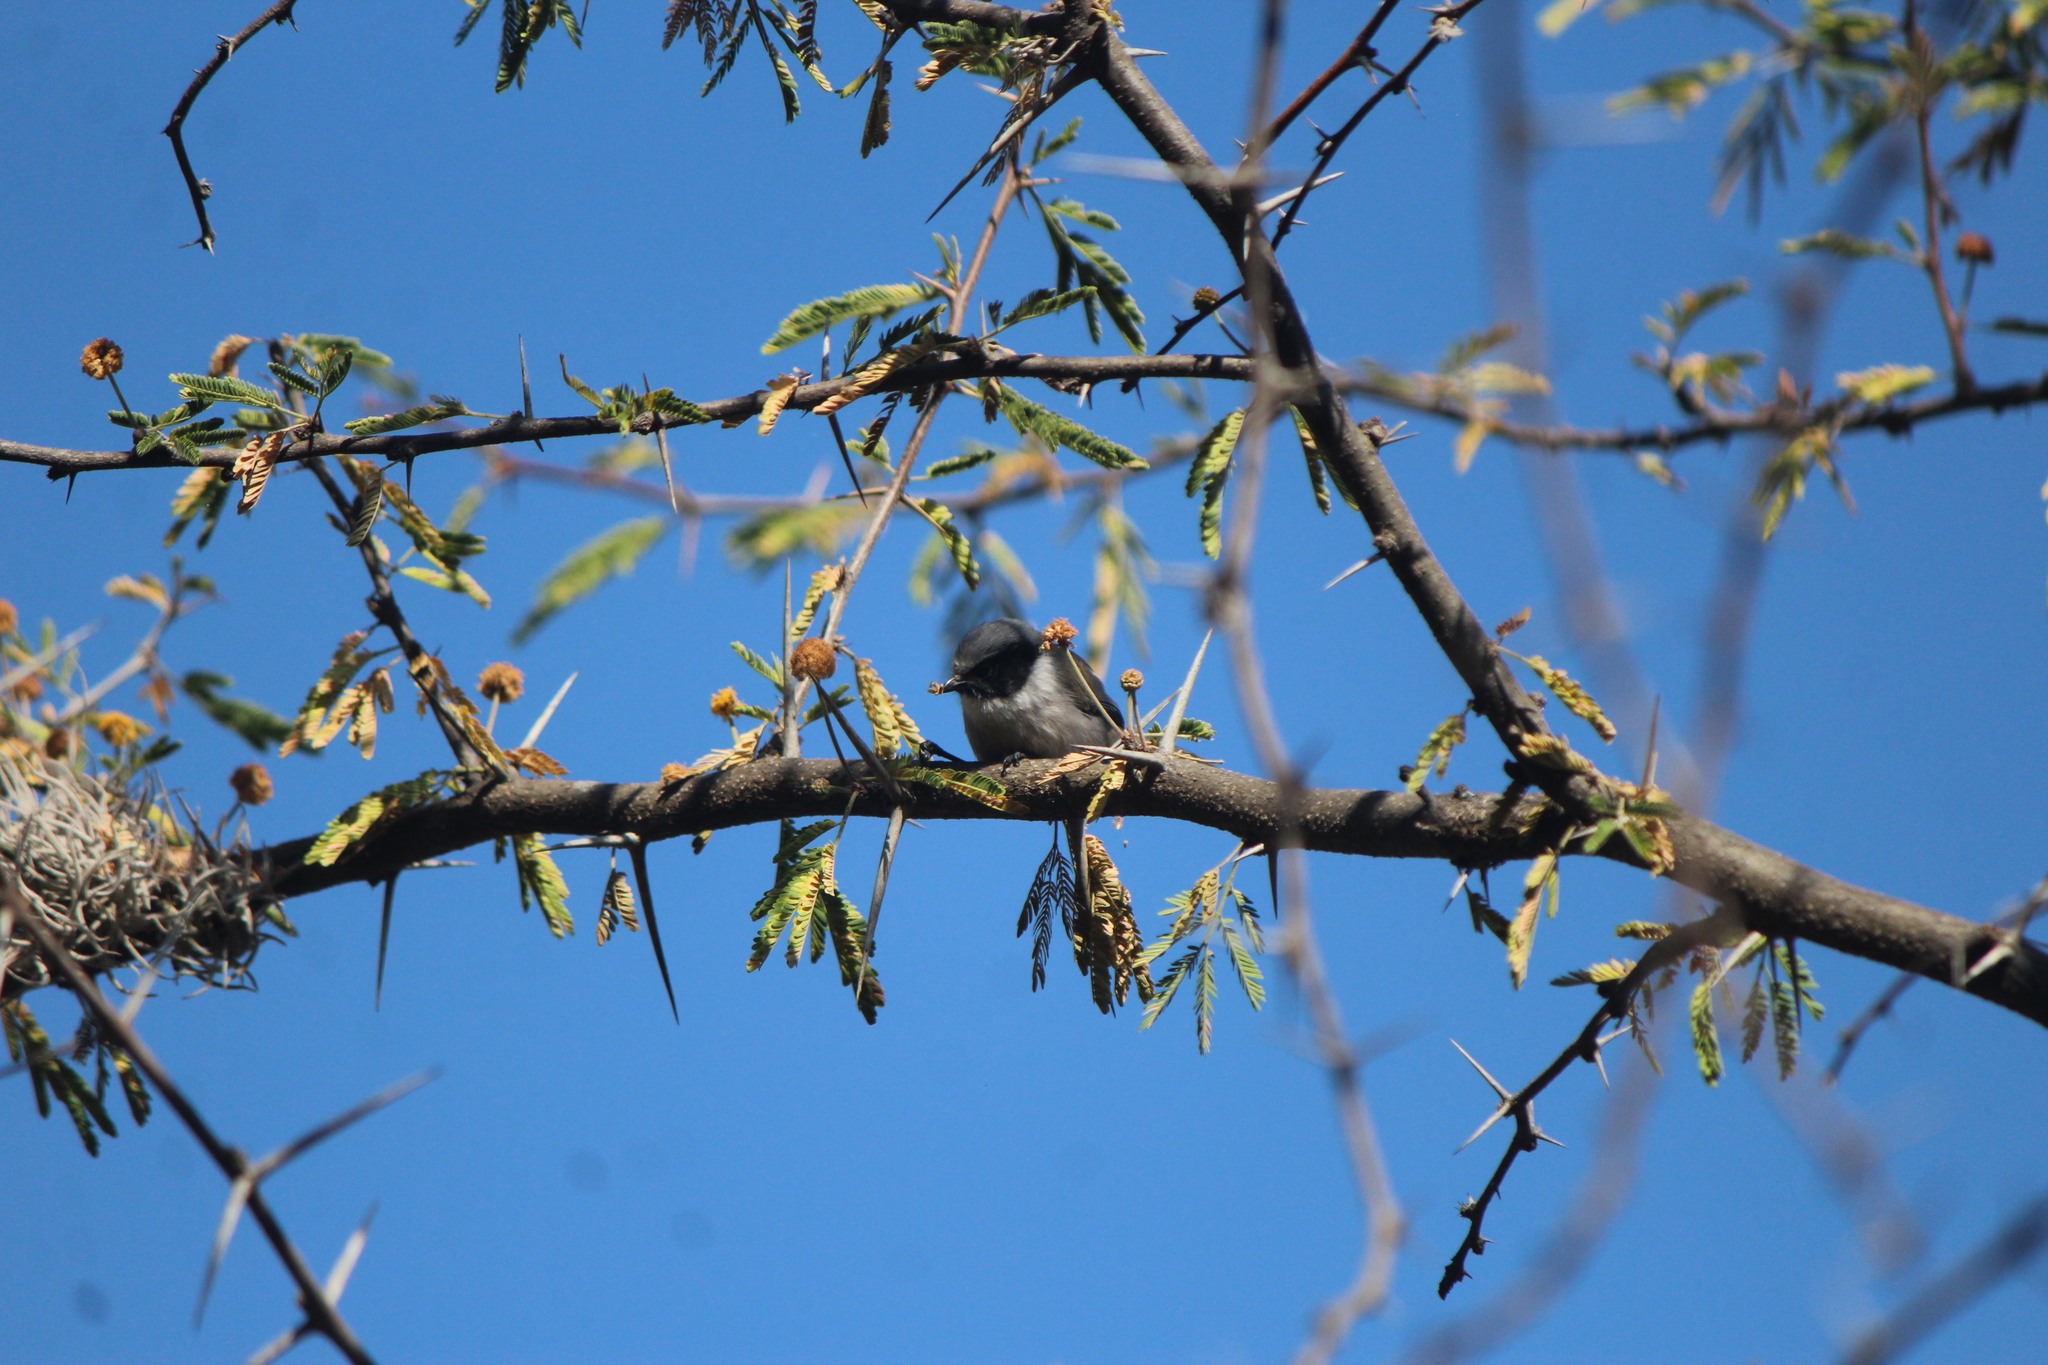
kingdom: Animalia
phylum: Chordata
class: Aves
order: Passeriformes
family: Aegithalidae
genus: Psaltriparus
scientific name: Psaltriparus minimus
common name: American bushtit
